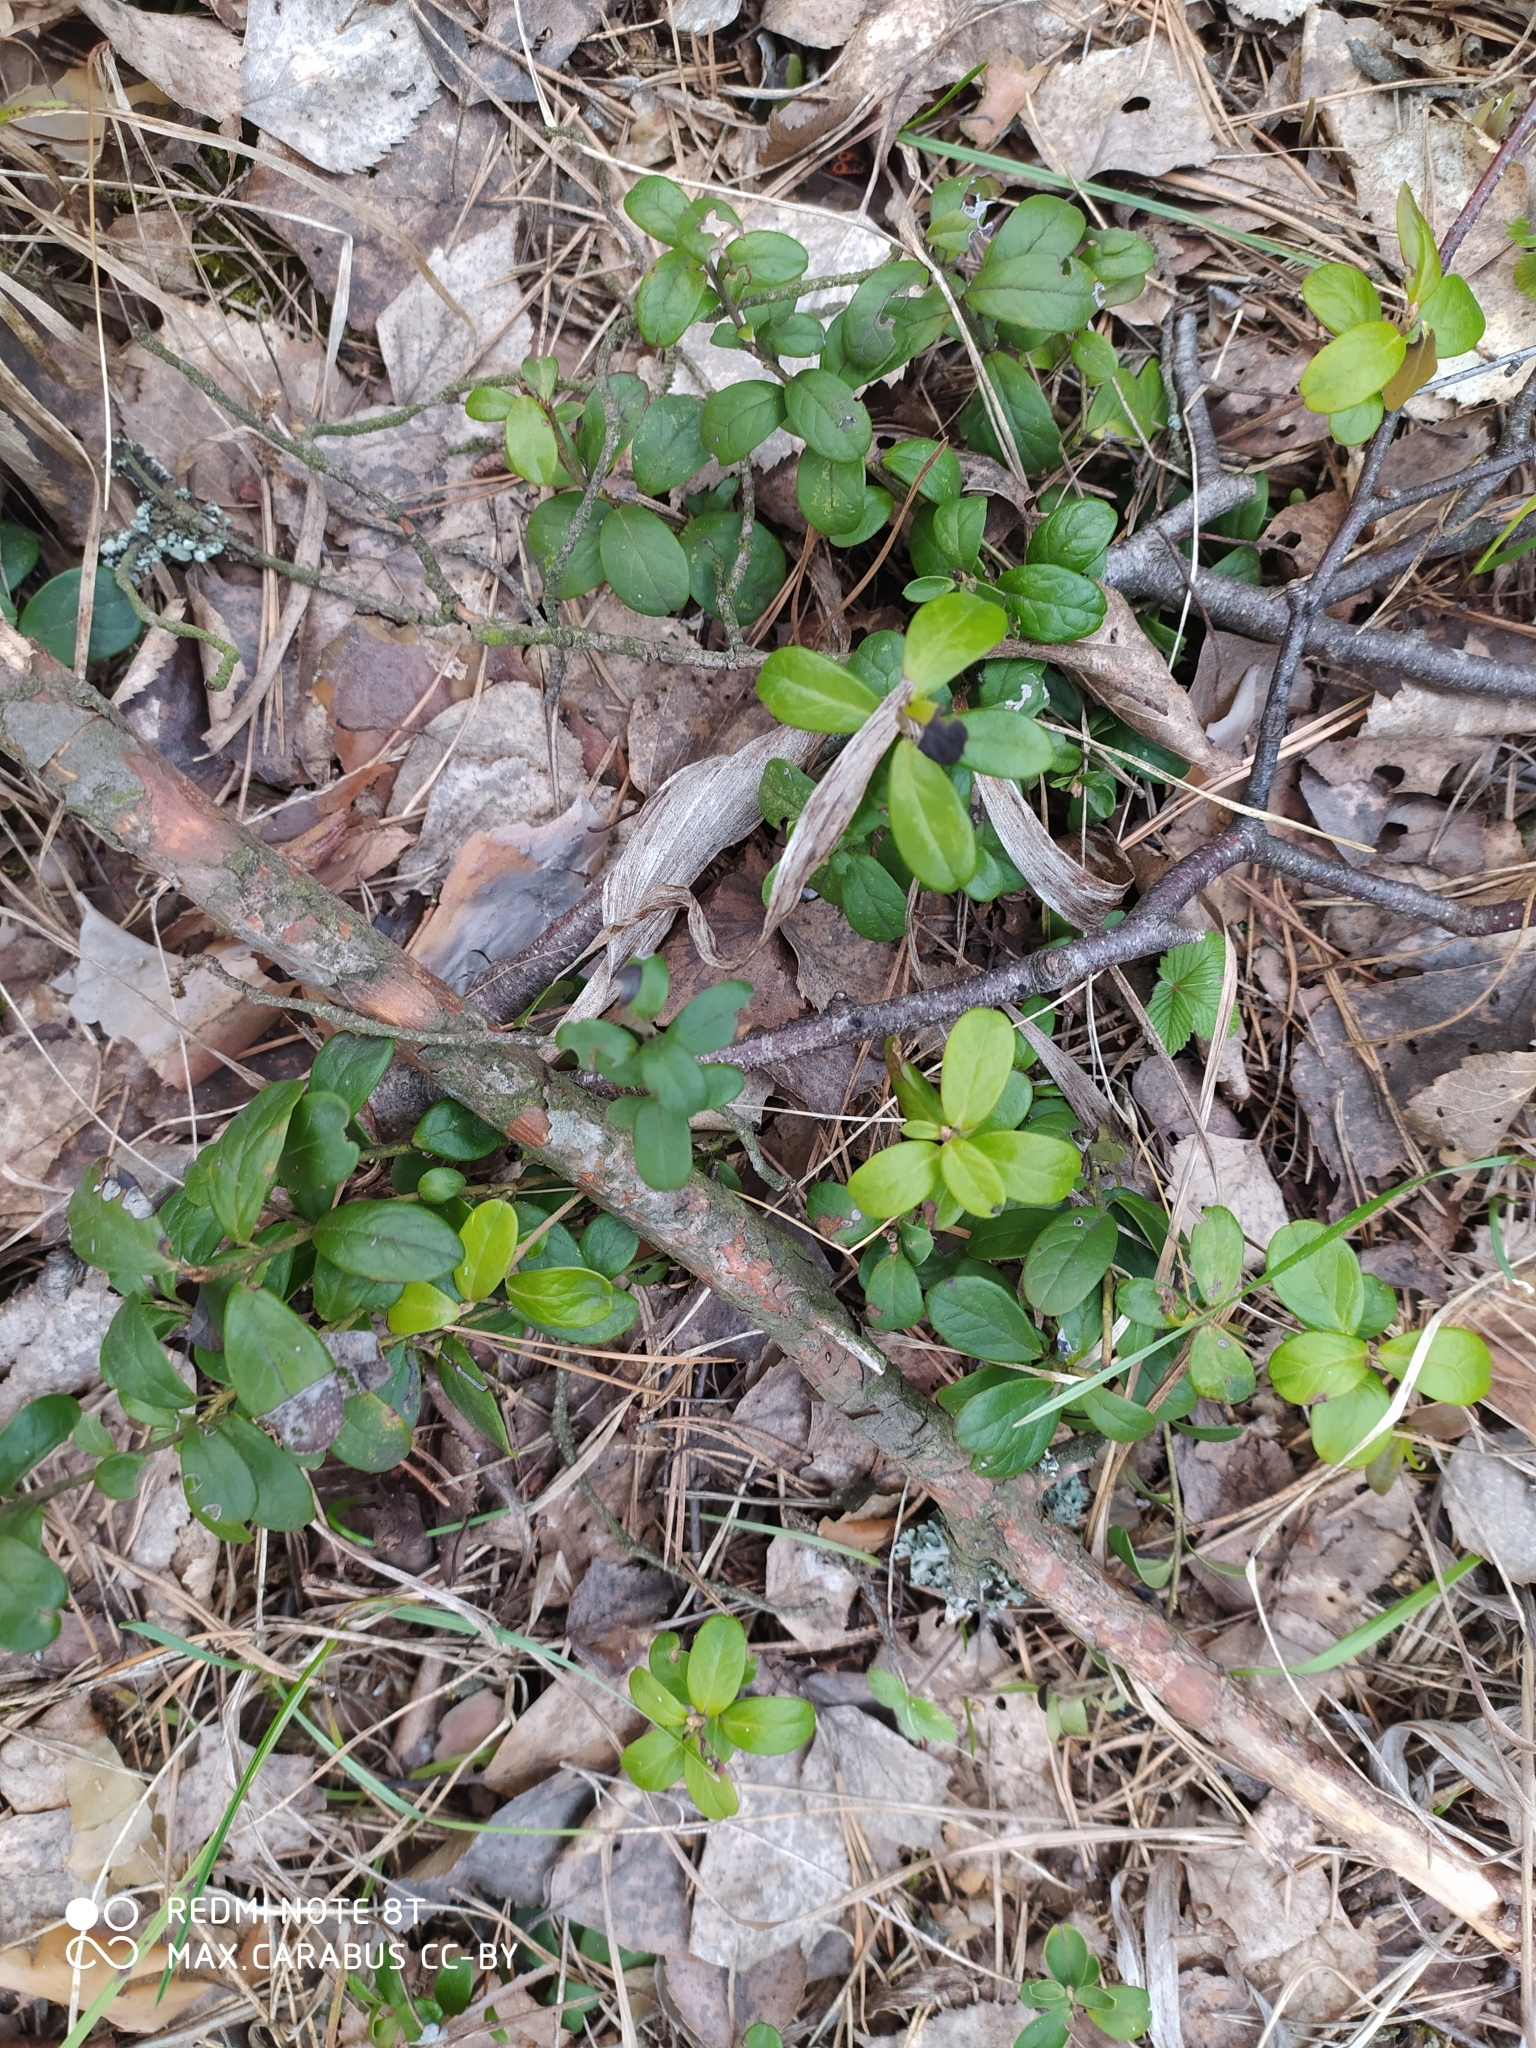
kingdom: Plantae
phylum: Tracheophyta
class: Magnoliopsida
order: Ericales
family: Ericaceae
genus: Vaccinium
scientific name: Vaccinium vitis-idaea
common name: Cowberry
